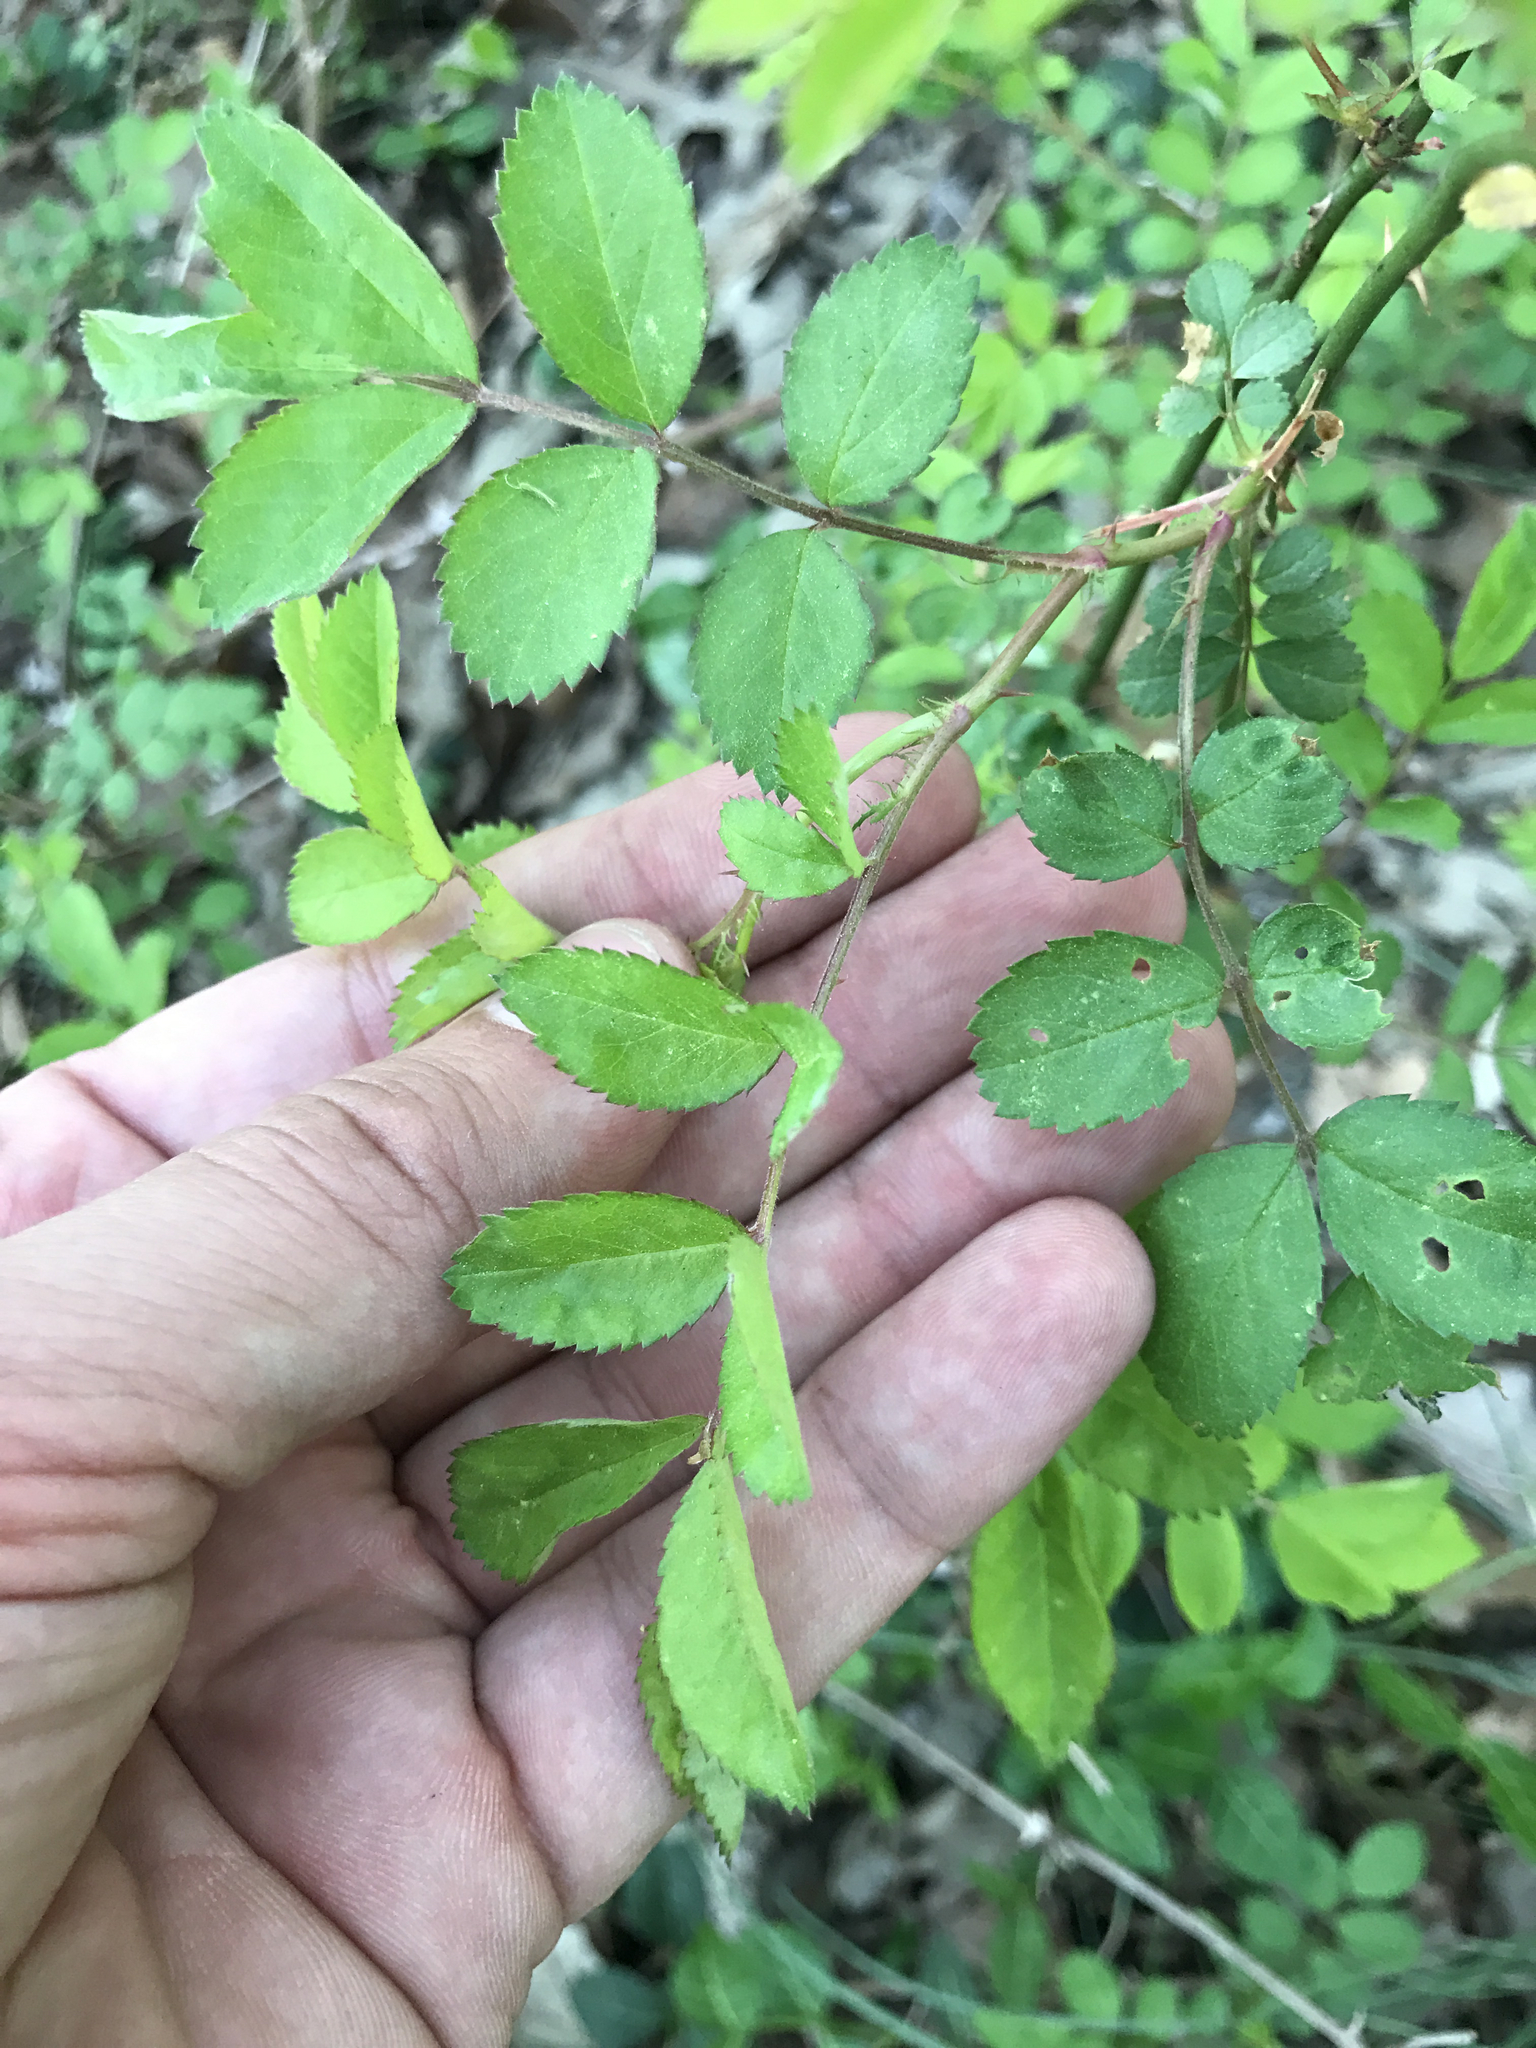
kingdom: Plantae
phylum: Tracheophyta
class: Magnoliopsida
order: Rosales
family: Rosaceae
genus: Rosa
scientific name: Rosa multiflora
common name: Multiflora rose
